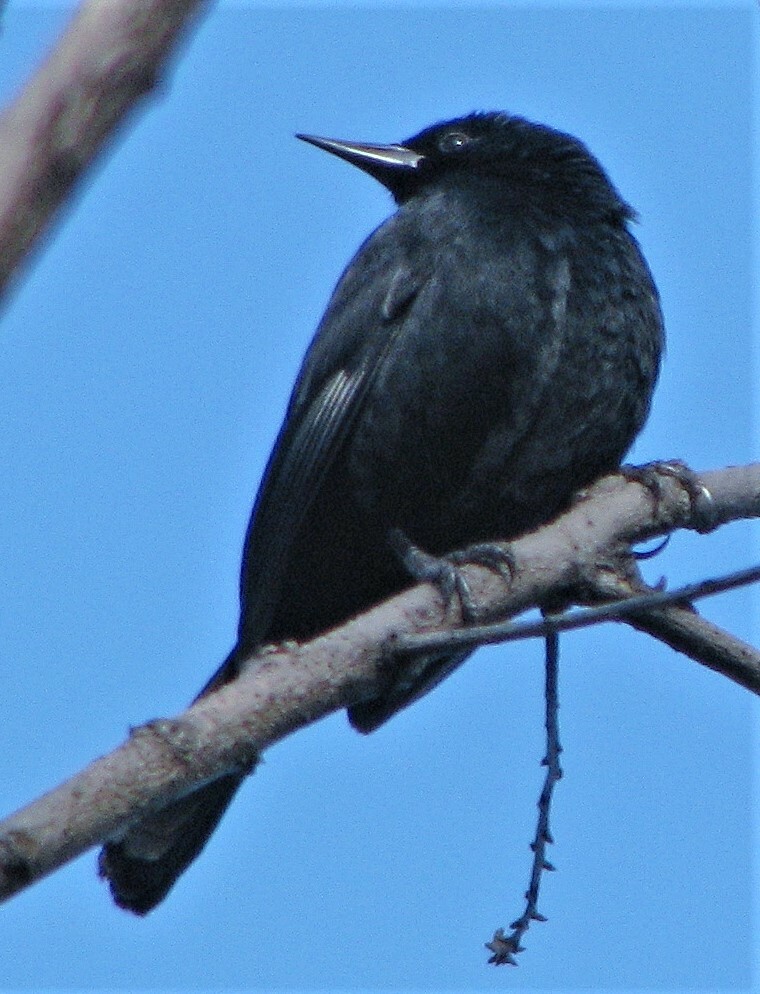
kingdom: Animalia
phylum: Chordata
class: Aves
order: Passeriformes
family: Icteridae
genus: Agelasticus
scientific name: Agelasticus cyanopus
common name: Unicolored blackbird
